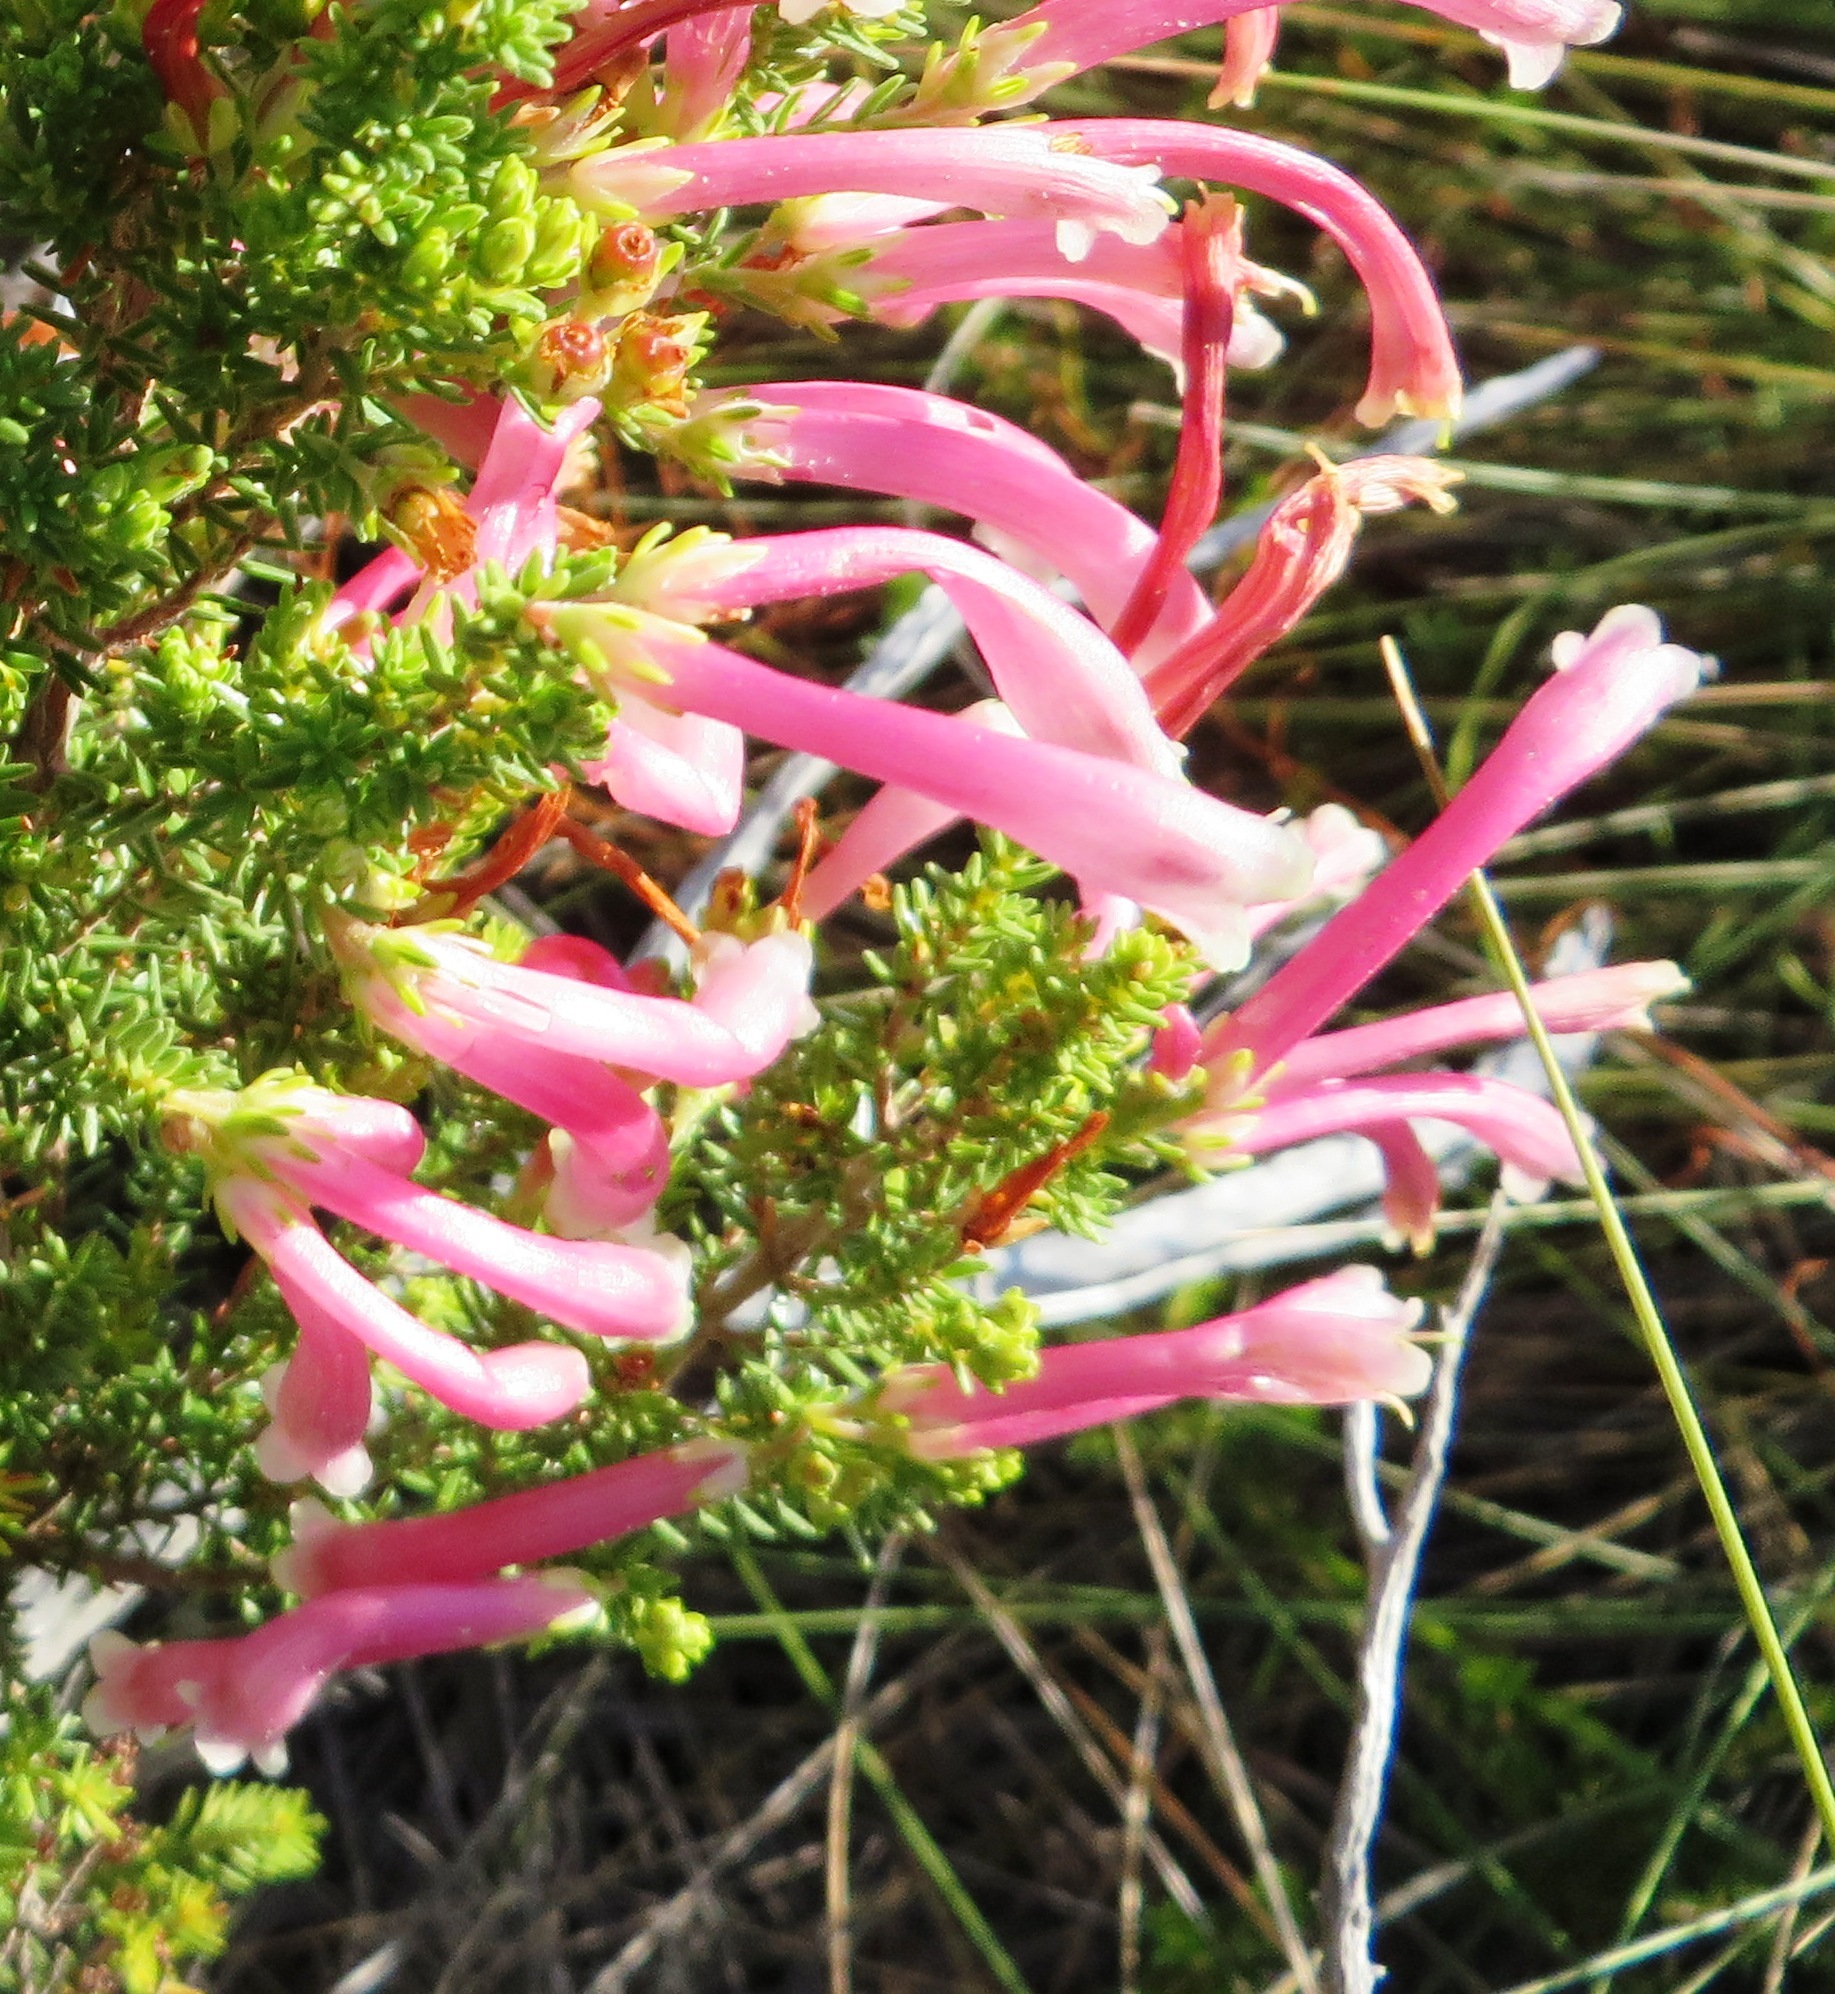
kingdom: Plantae
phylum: Tracheophyta
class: Magnoliopsida
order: Ericales
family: Ericaceae
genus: Erica
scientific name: Erica discolor
